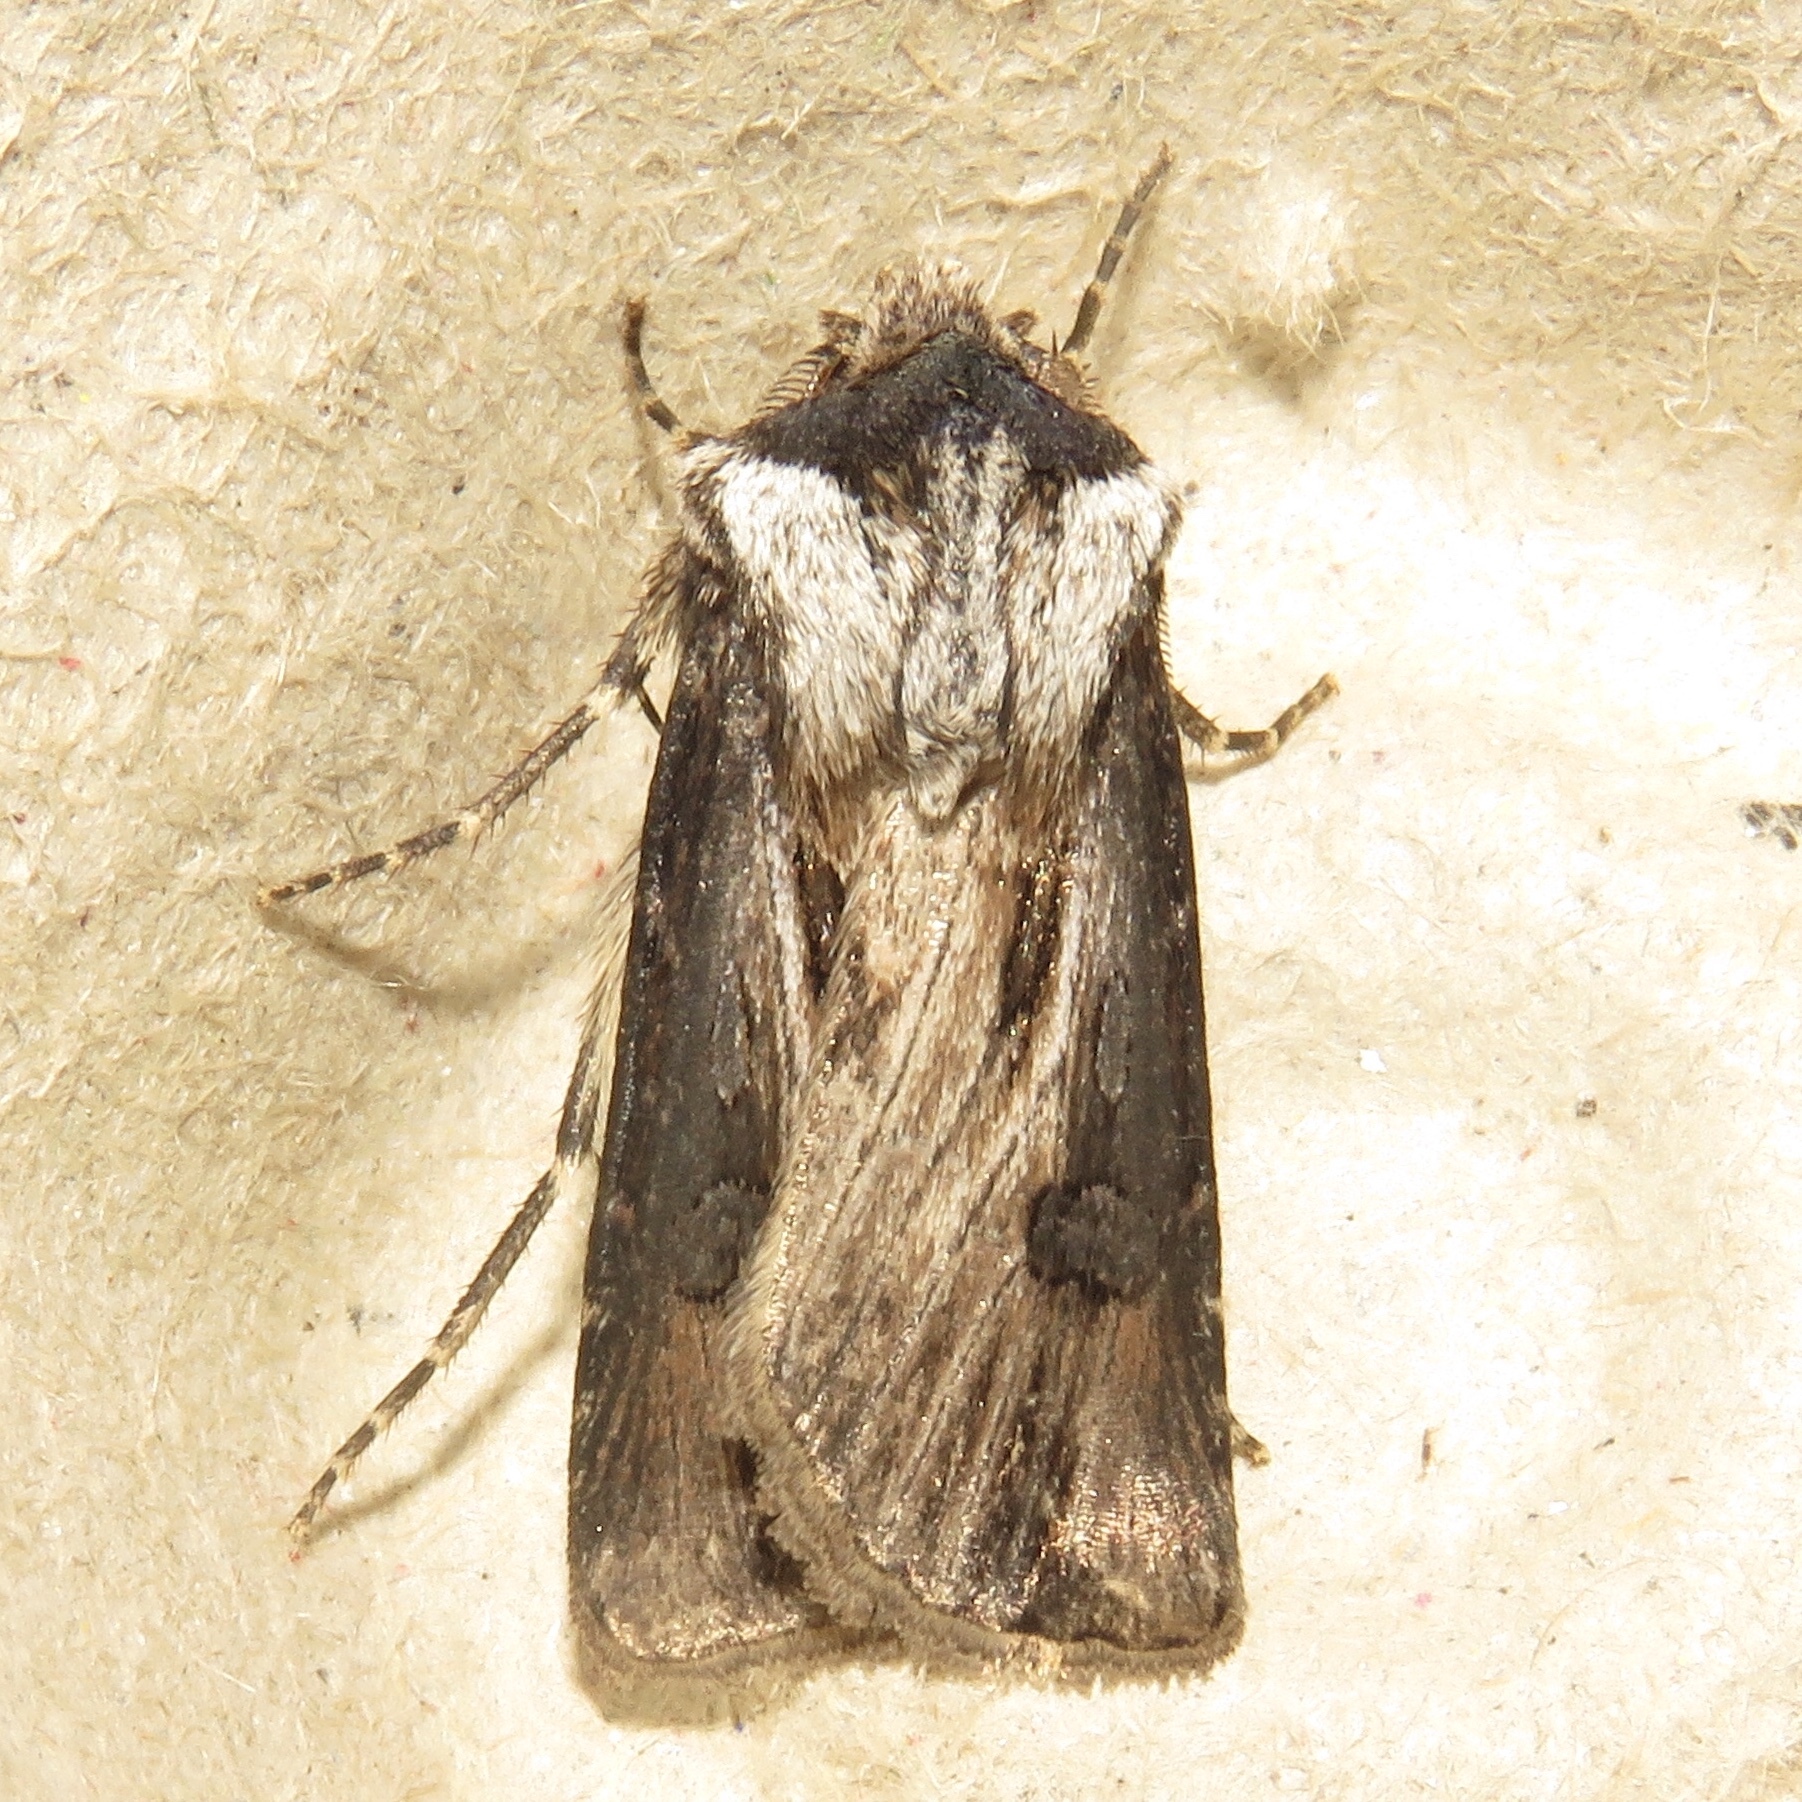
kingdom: Animalia
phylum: Arthropoda
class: Insecta
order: Lepidoptera
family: Noctuidae
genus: Agrotis
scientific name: Agrotis venerabilis
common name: Venerable dart
